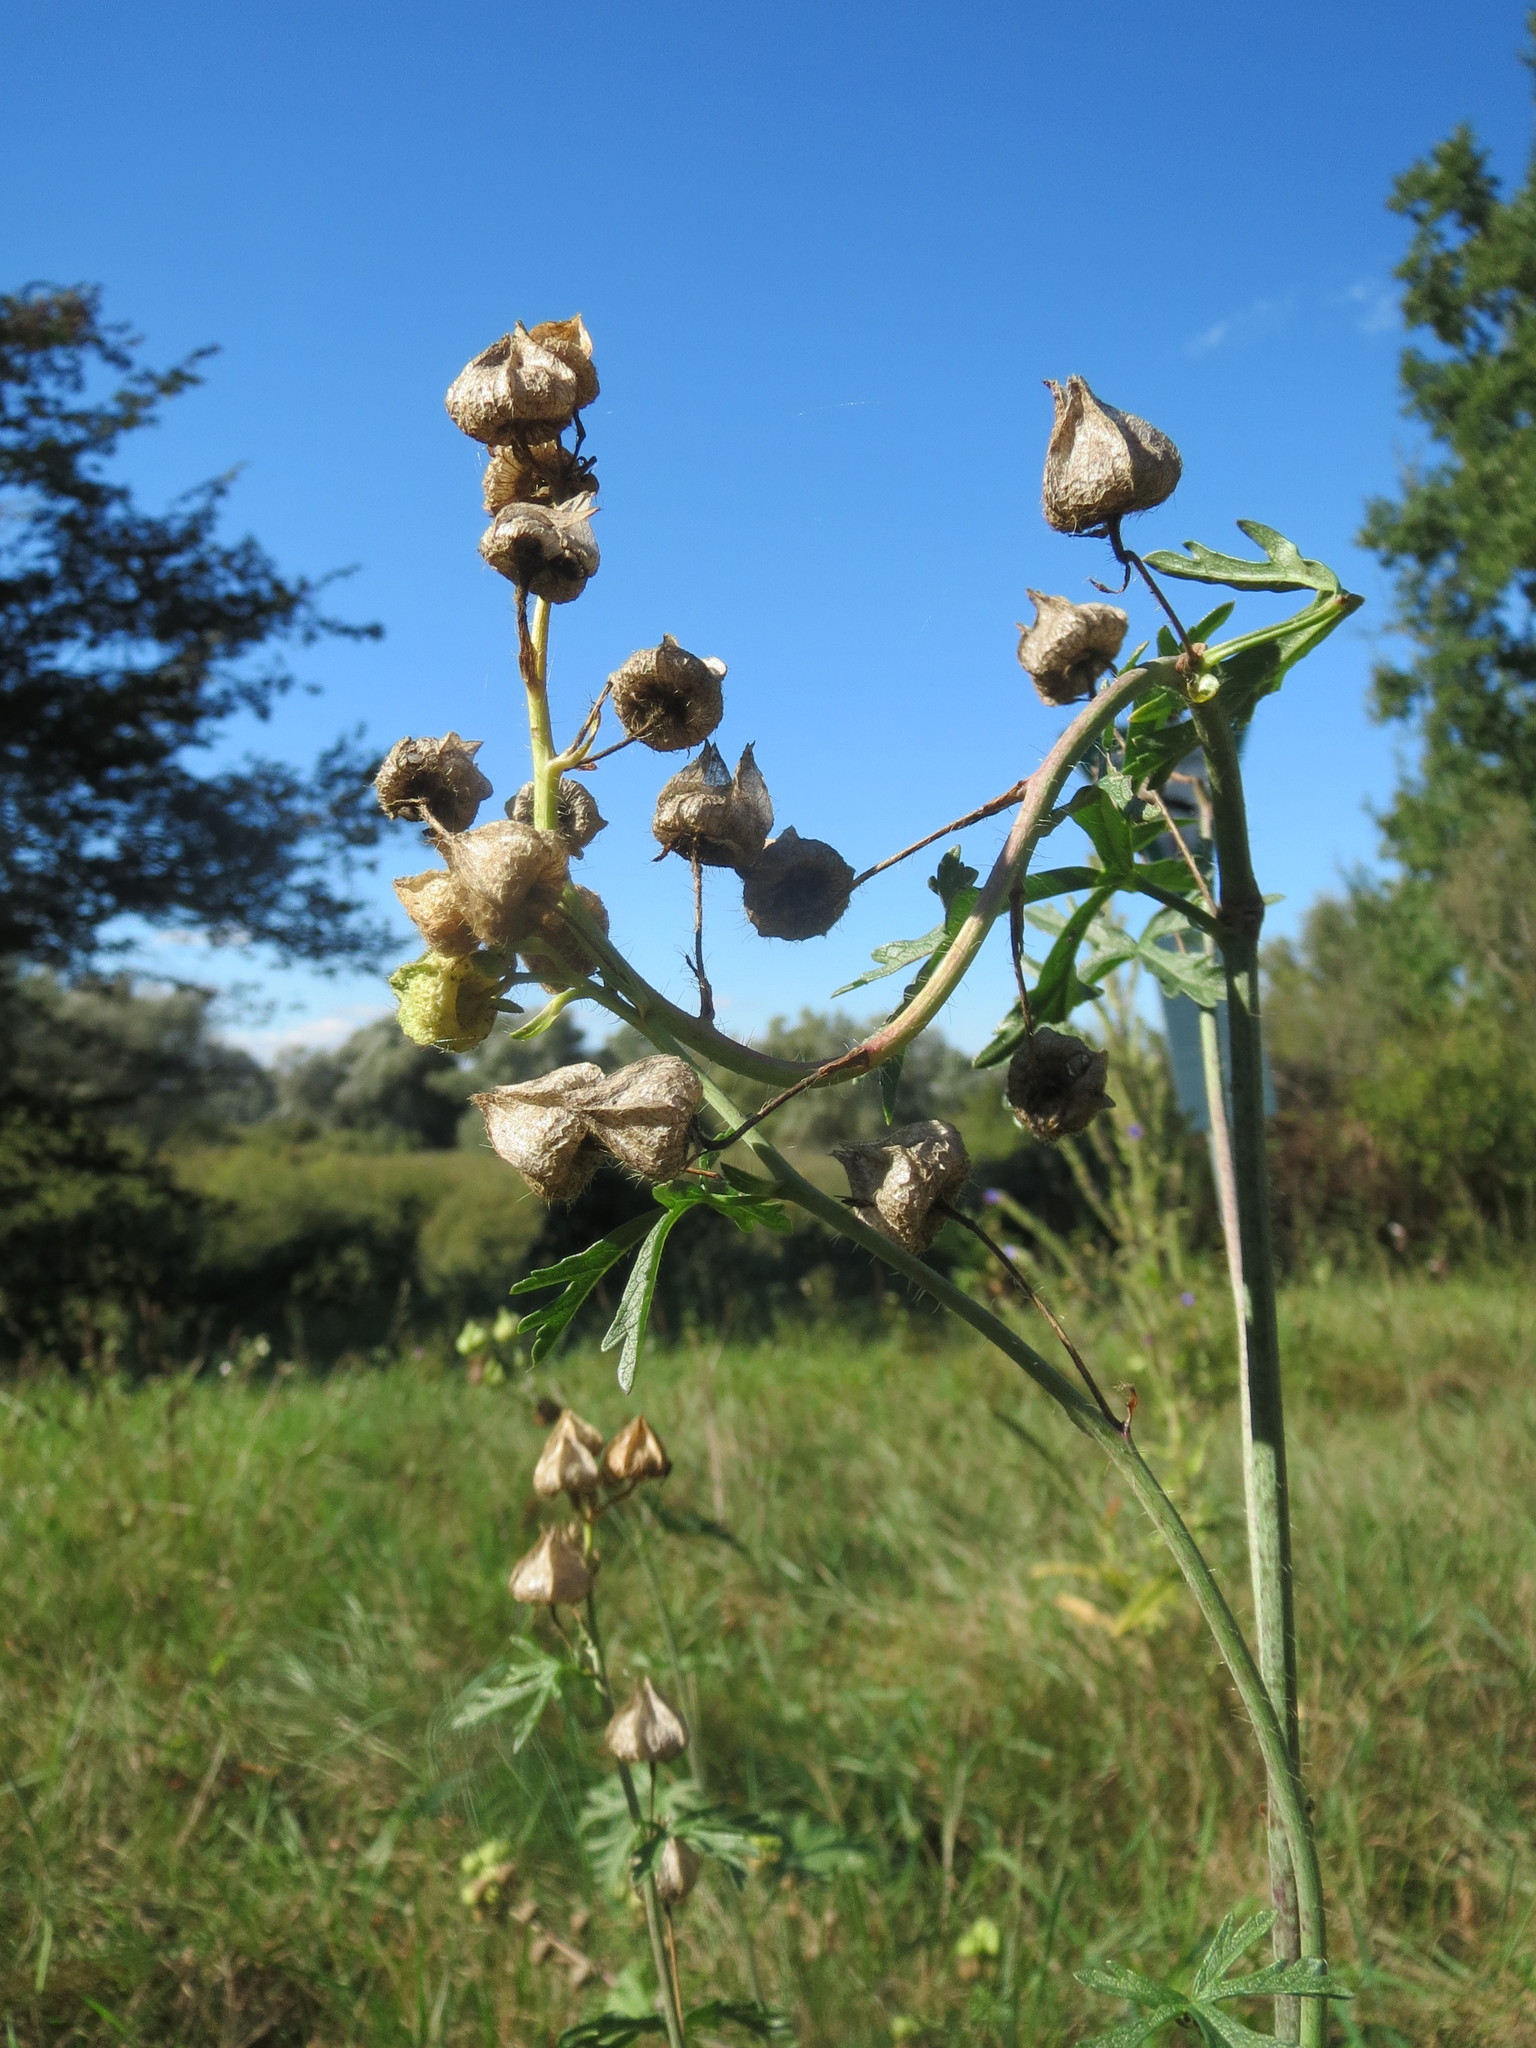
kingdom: Plantae
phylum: Tracheophyta
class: Magnoliopsida
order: Malvales
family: Malvaceae
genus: Malva
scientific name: Malva moschata
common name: Musk mallow
